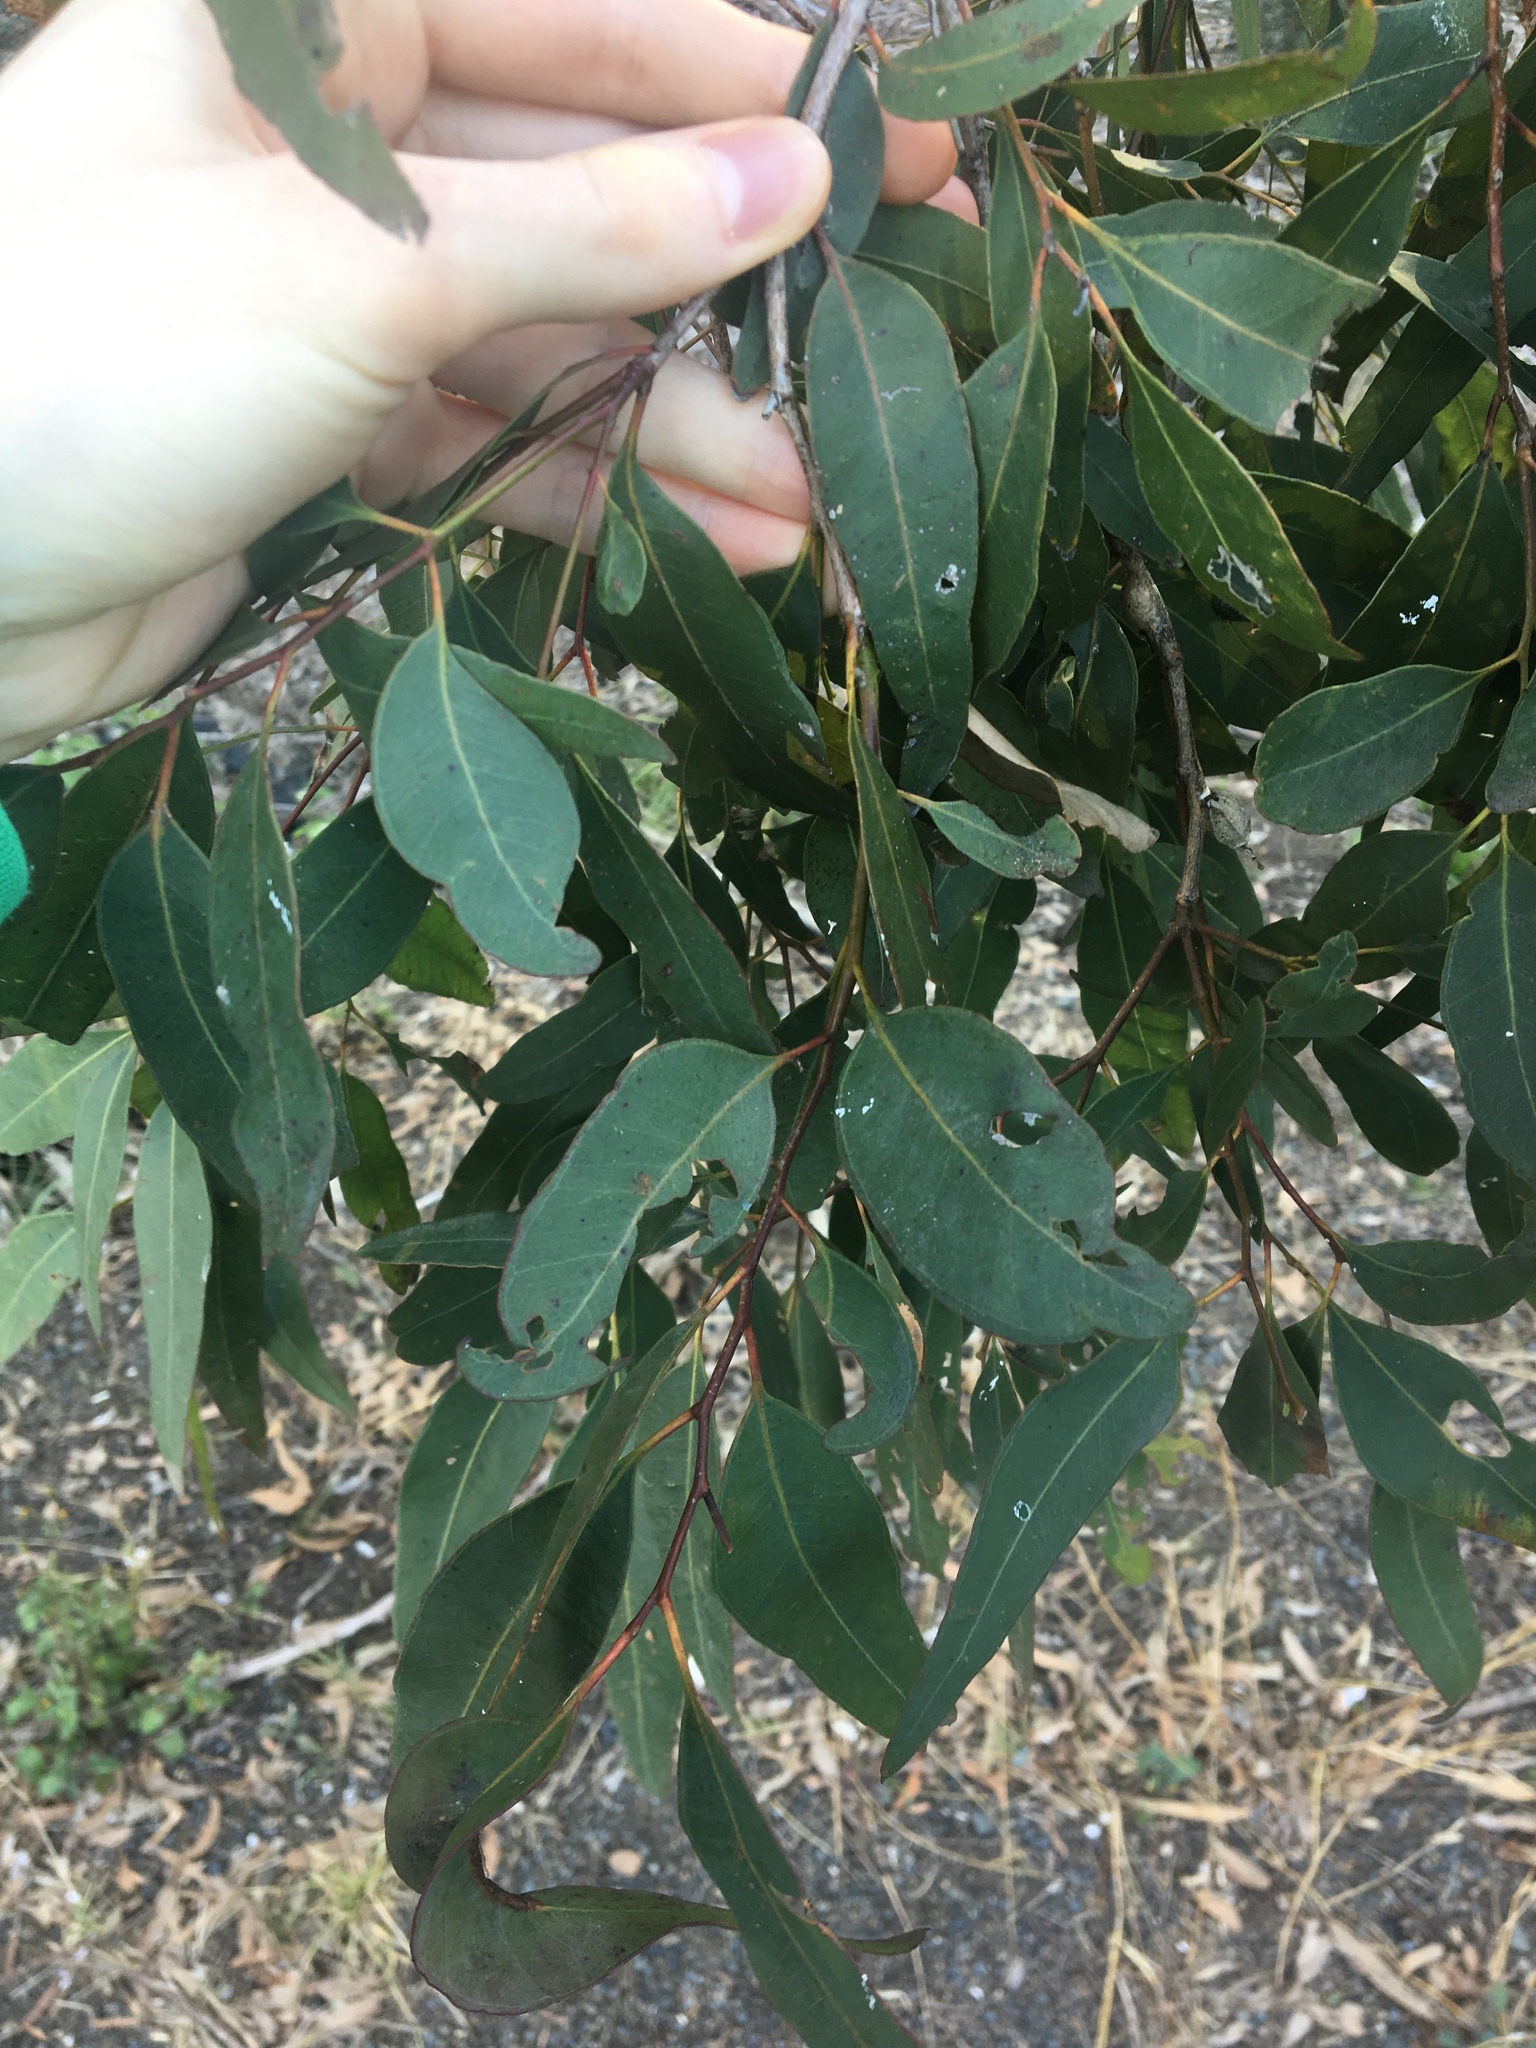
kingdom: Plantae
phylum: Tracheophyta
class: Magnoliopsida
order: Myrtales
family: Myrtaceae
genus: Eucalyptus
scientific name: Eucalyptus paniculata
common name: Gray ironbark
